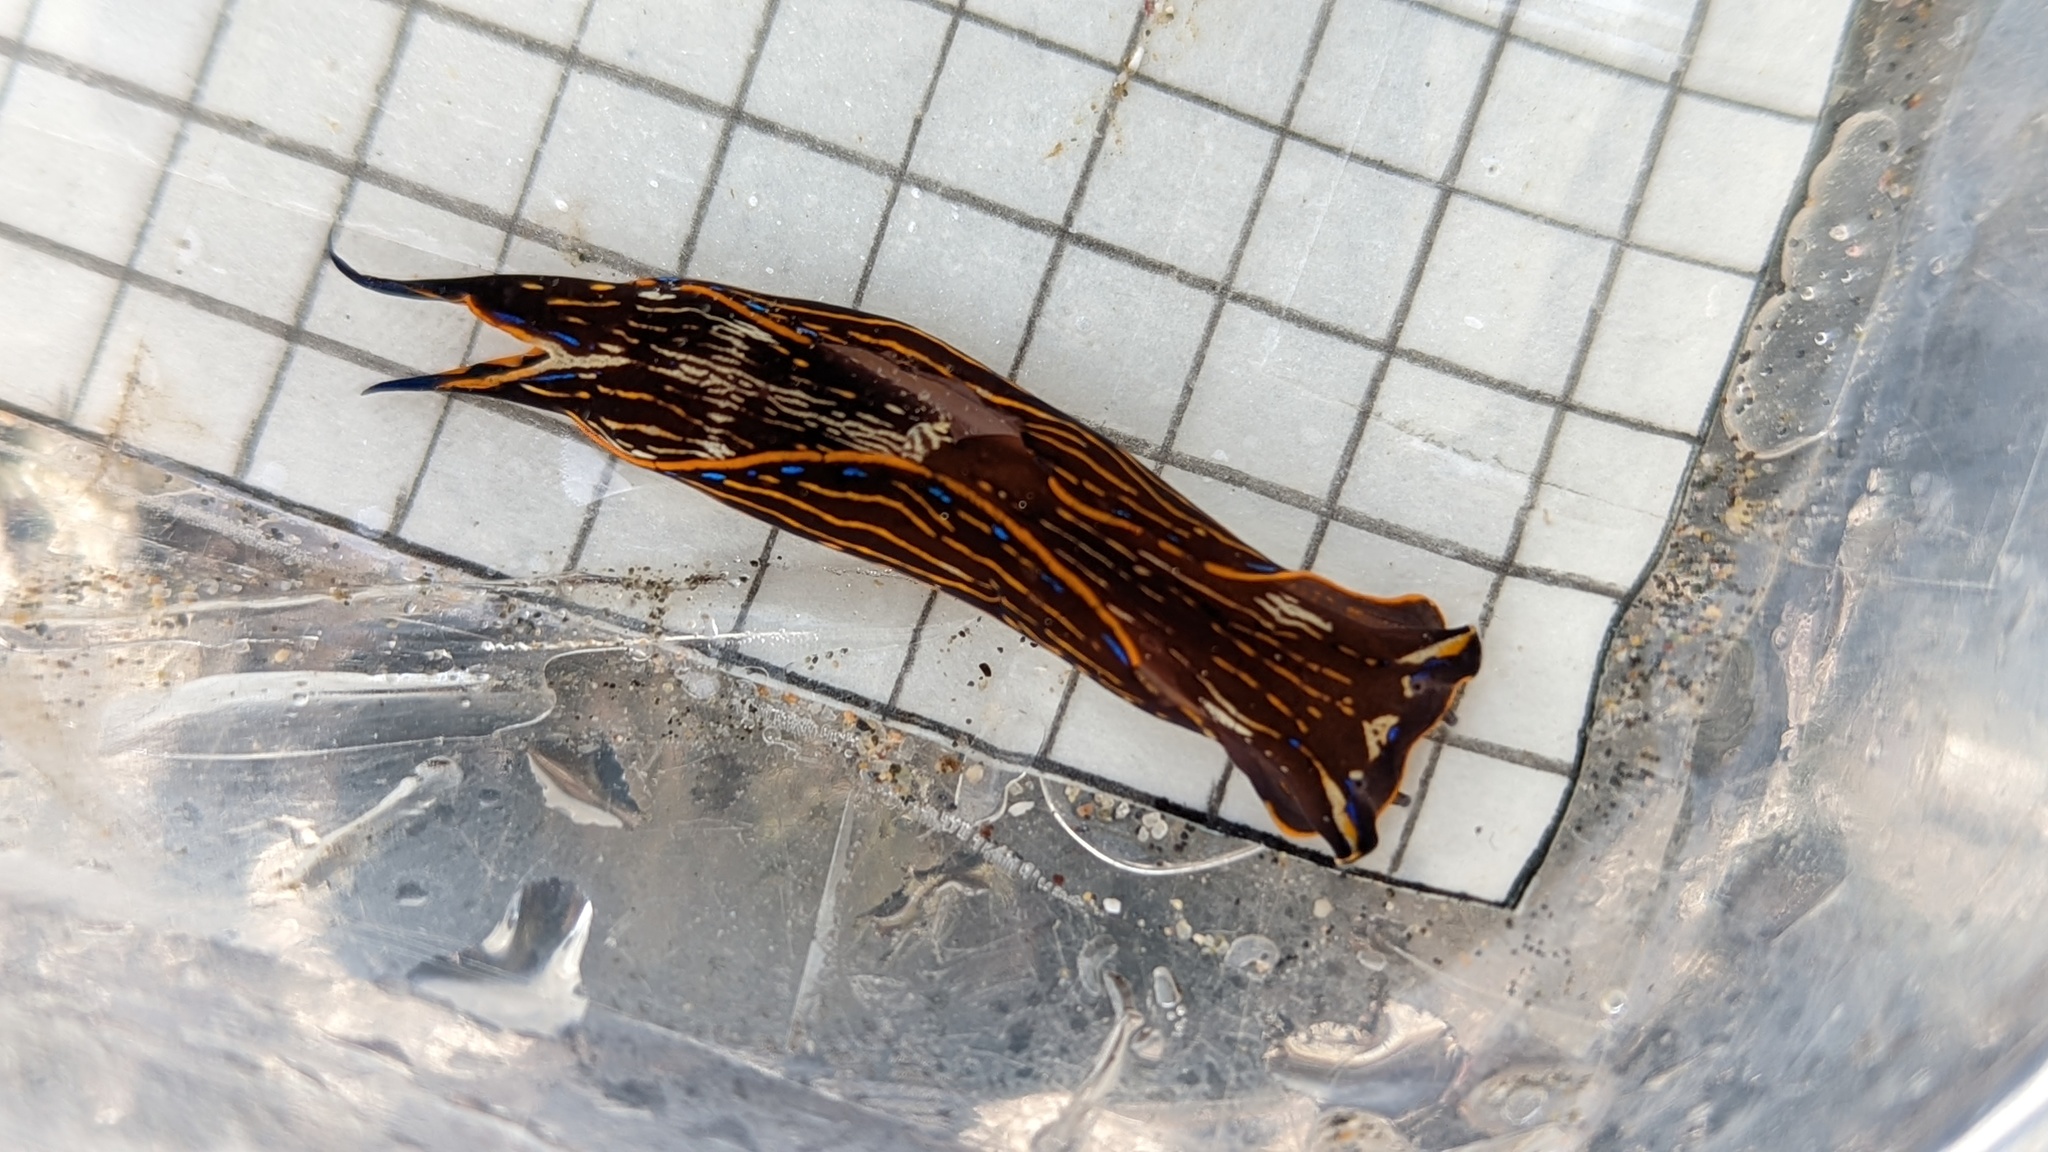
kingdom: Animalia
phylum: Mollusca
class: Gastropoda
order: Cephalaspidea
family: Aglajidae
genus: Navanax
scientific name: Navanax inermis
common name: California aglaja
